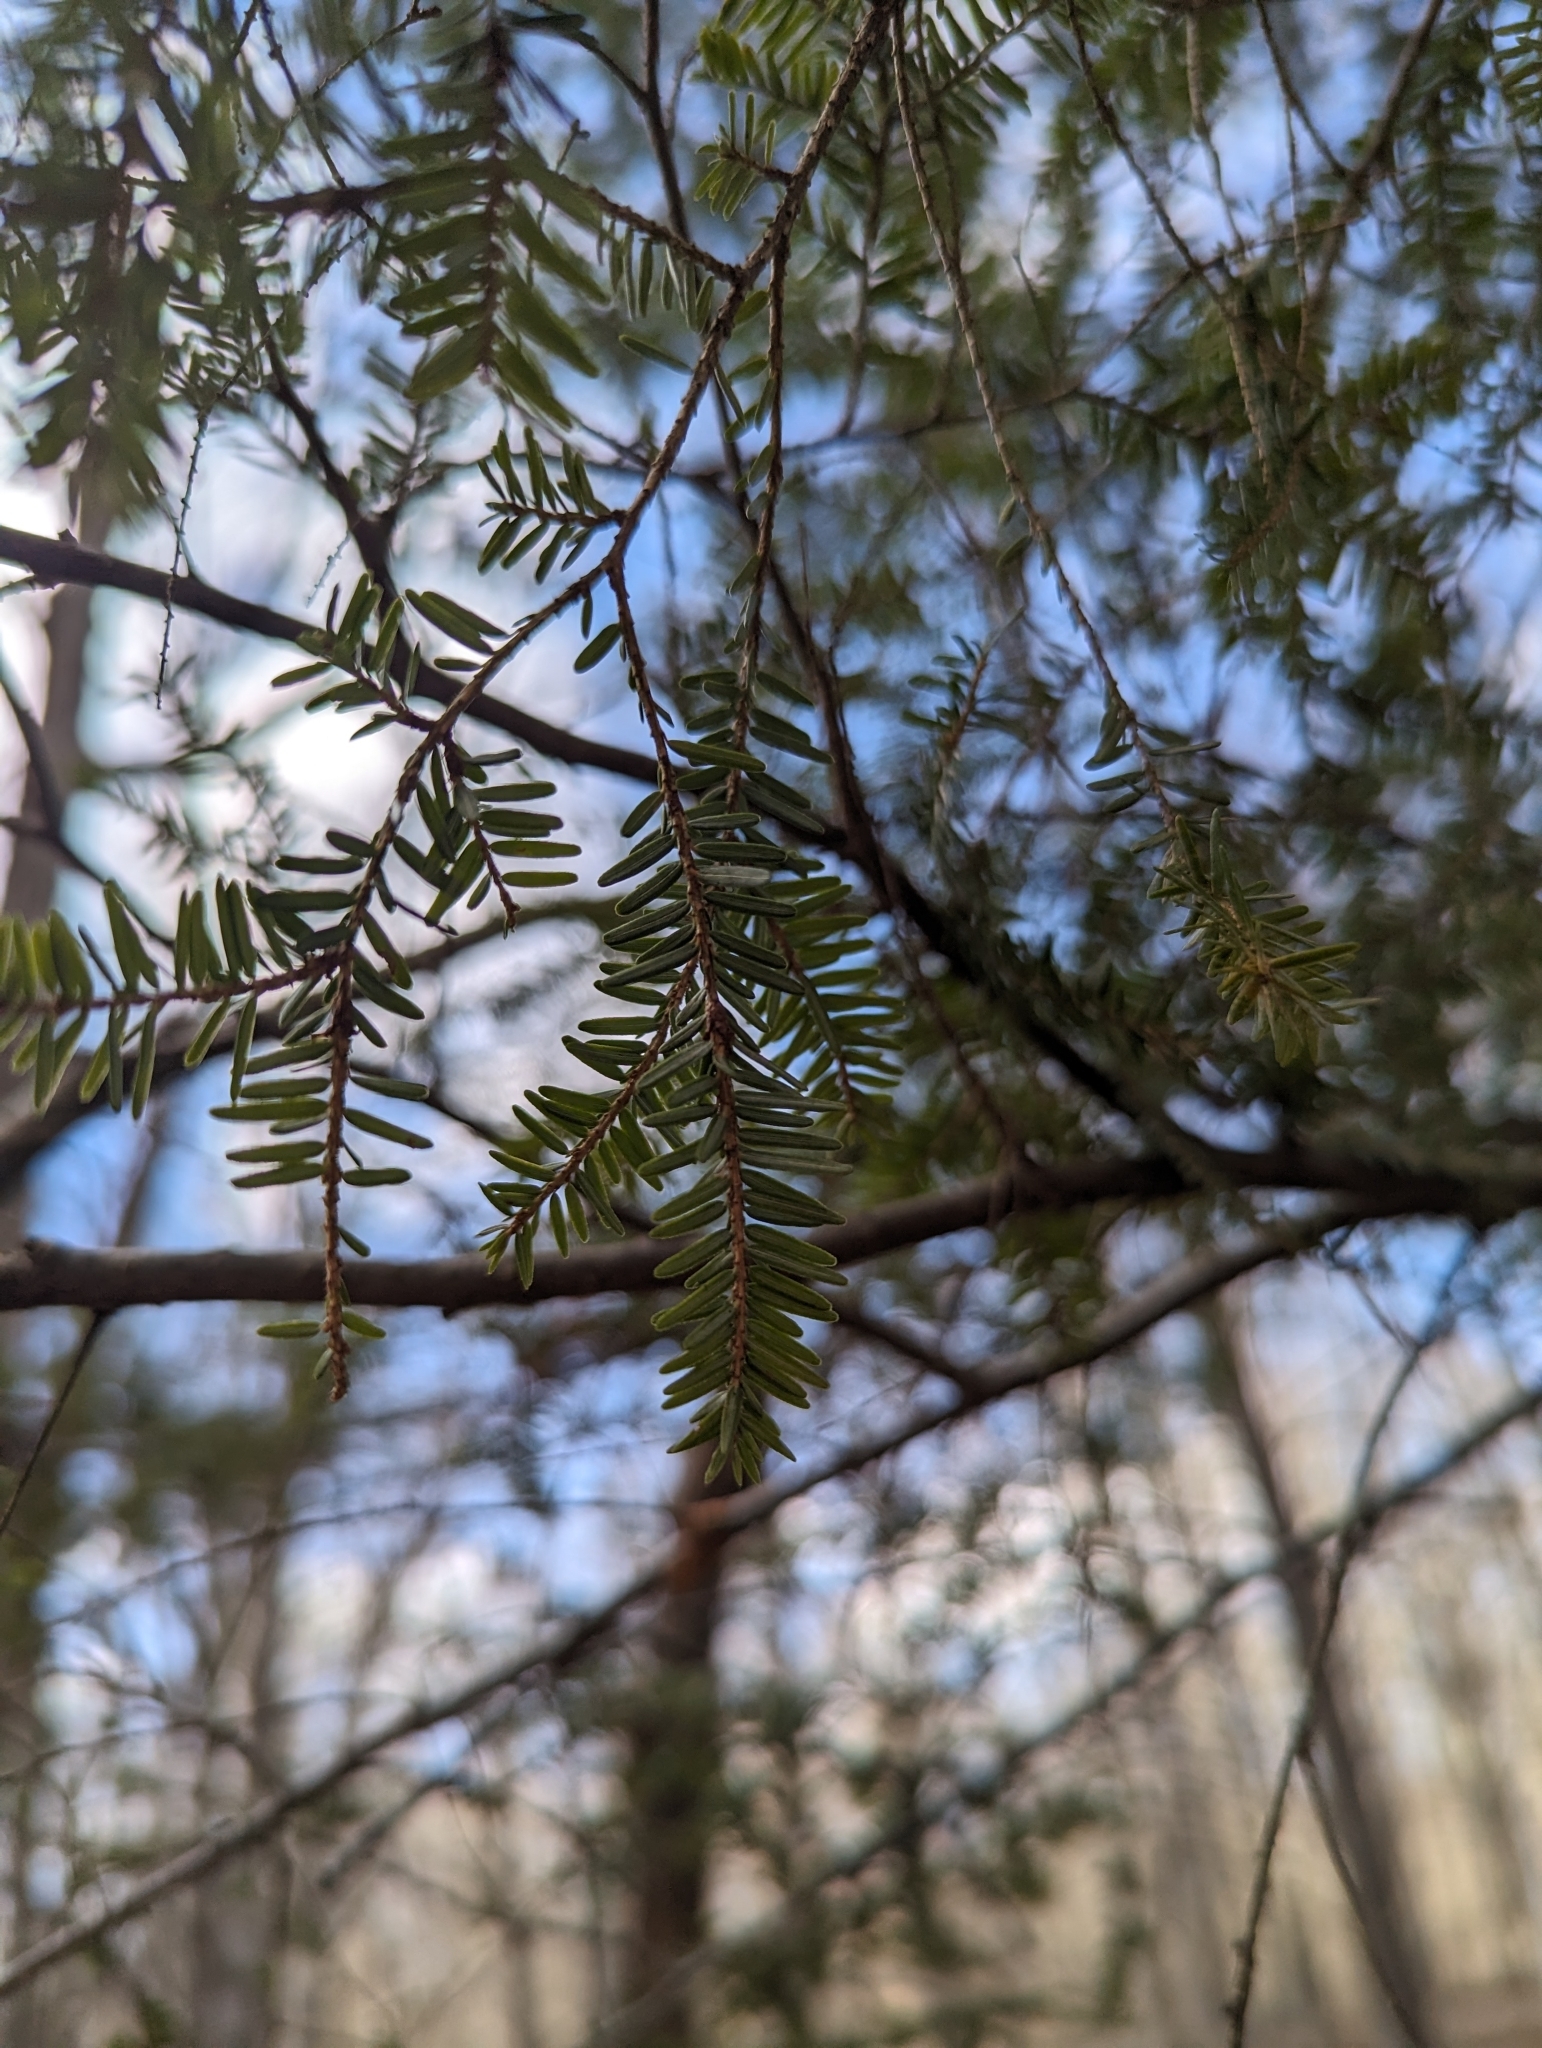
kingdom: Plantae
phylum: Tracheophyta
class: Pinopsida
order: Pinales
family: Pinaceae
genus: Tsuga
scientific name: Tsuga canadensis
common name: Eastern hemlock
